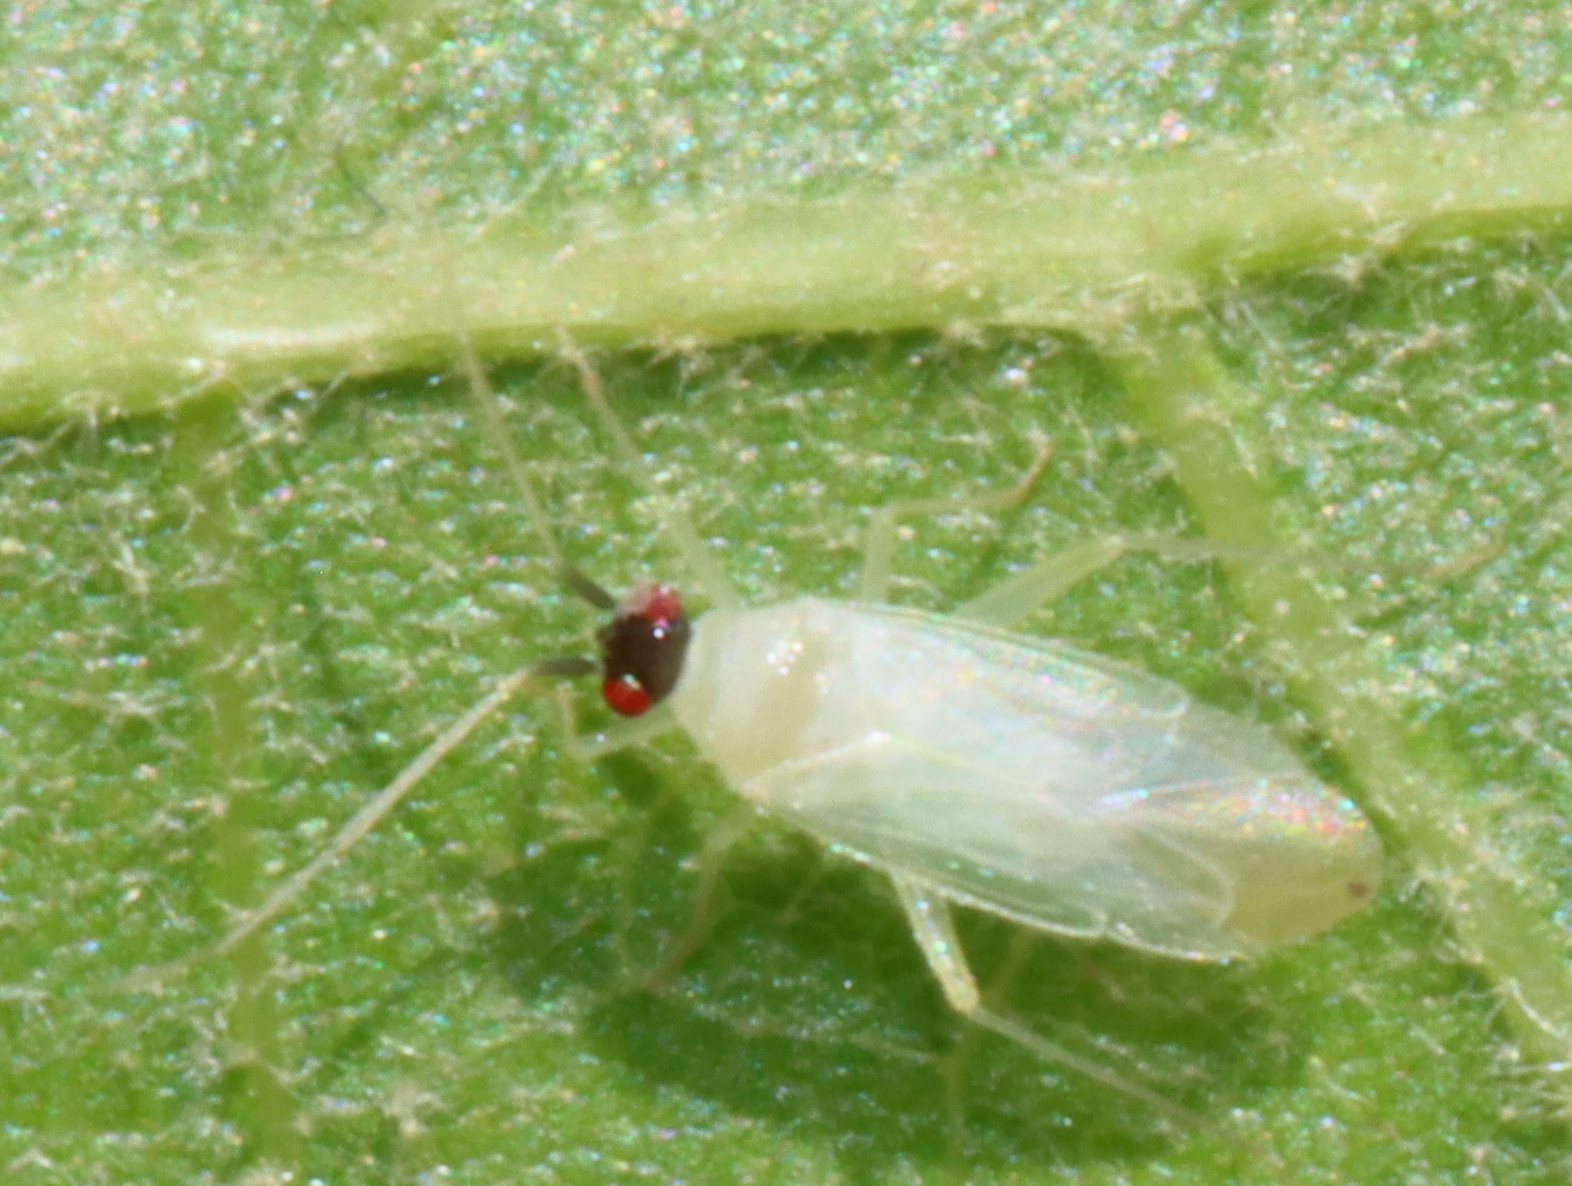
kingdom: Animalia
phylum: Arthropoda
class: Insecta
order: Hemiptera
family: Miridae
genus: Paraproba
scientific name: Paraproba capitata
